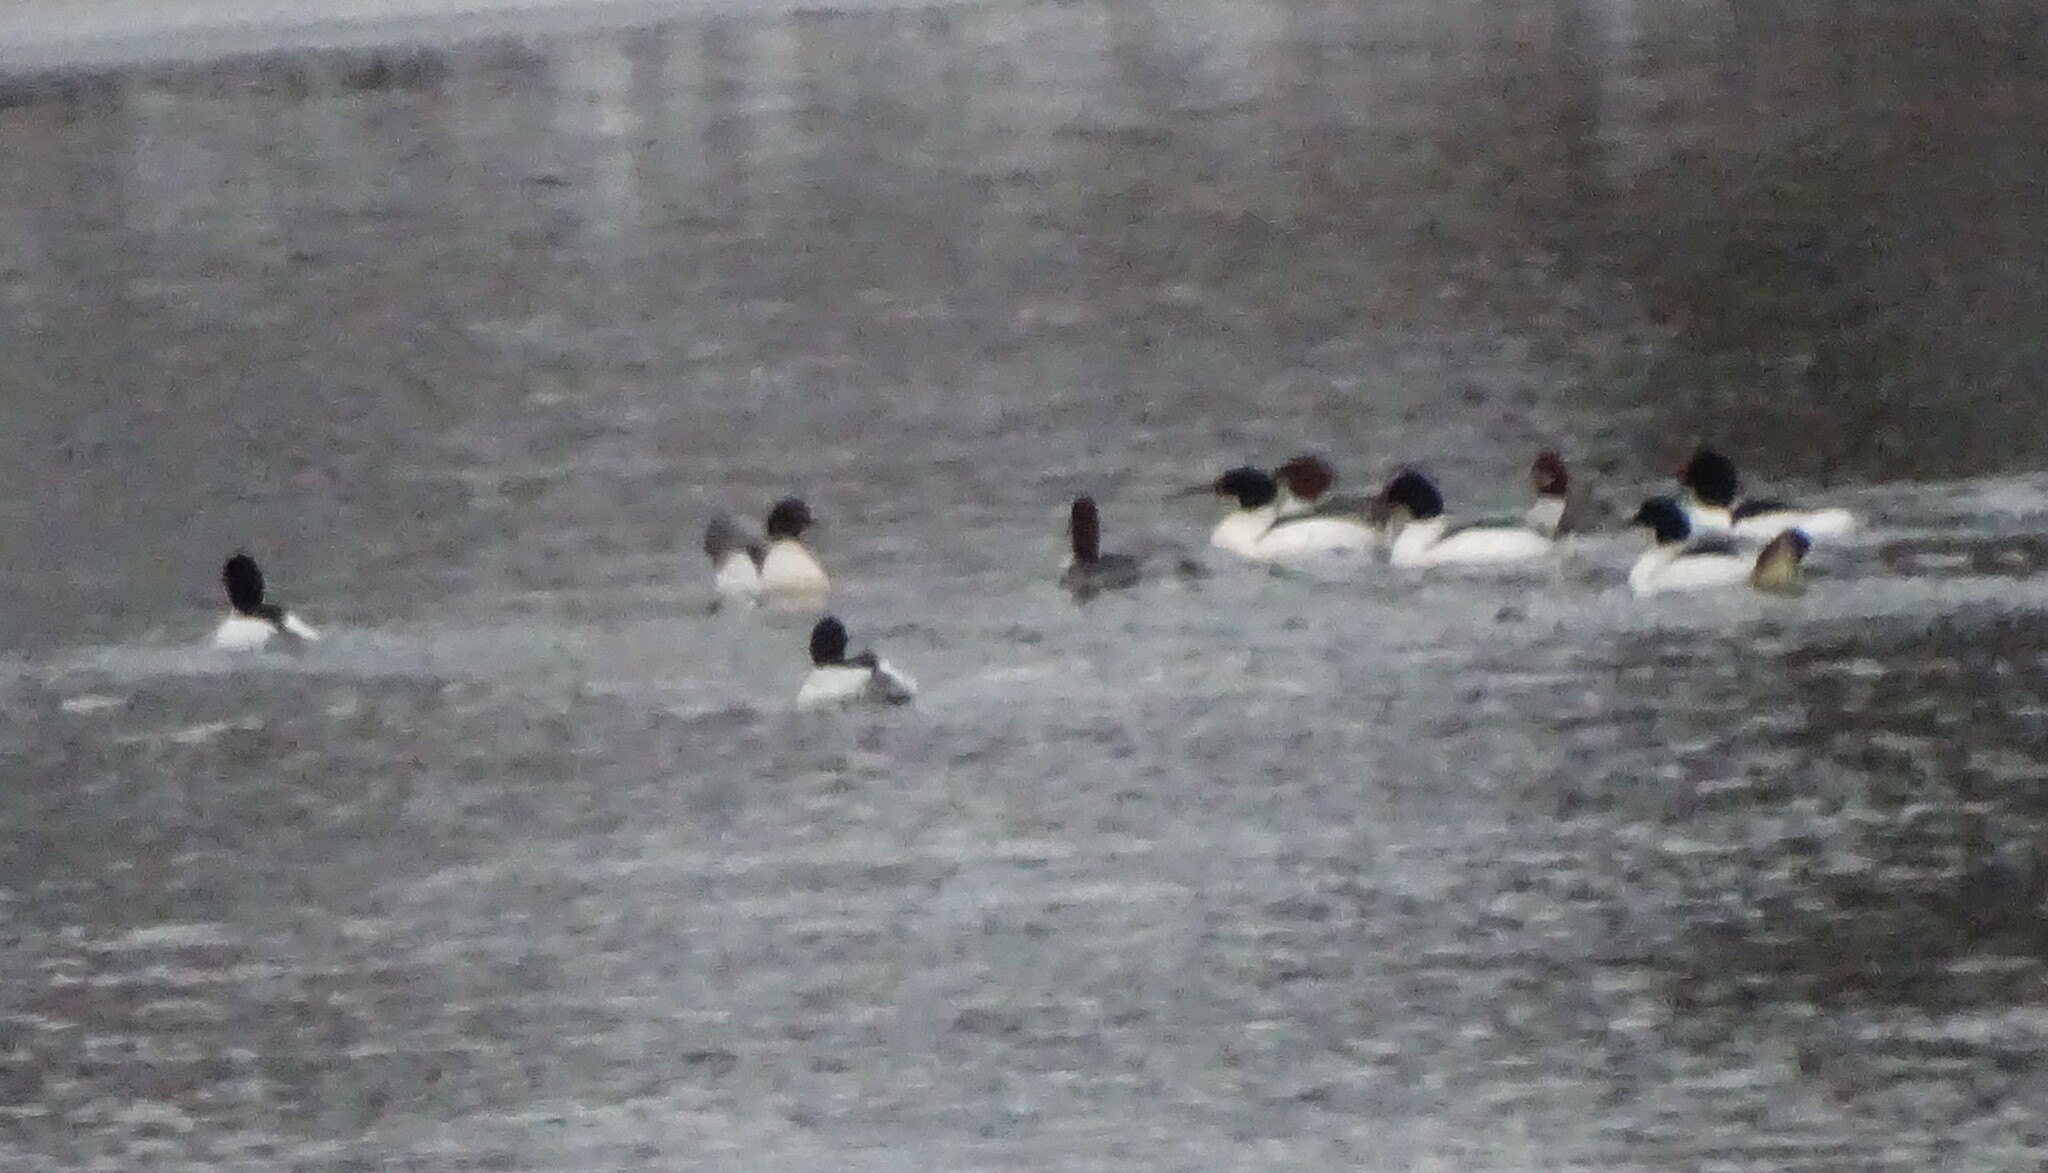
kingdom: Animalia
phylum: Chordata
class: Aves
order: Anseriformes
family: Anatidae
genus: Mergus
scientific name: Mergus merganser
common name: Common merganser
